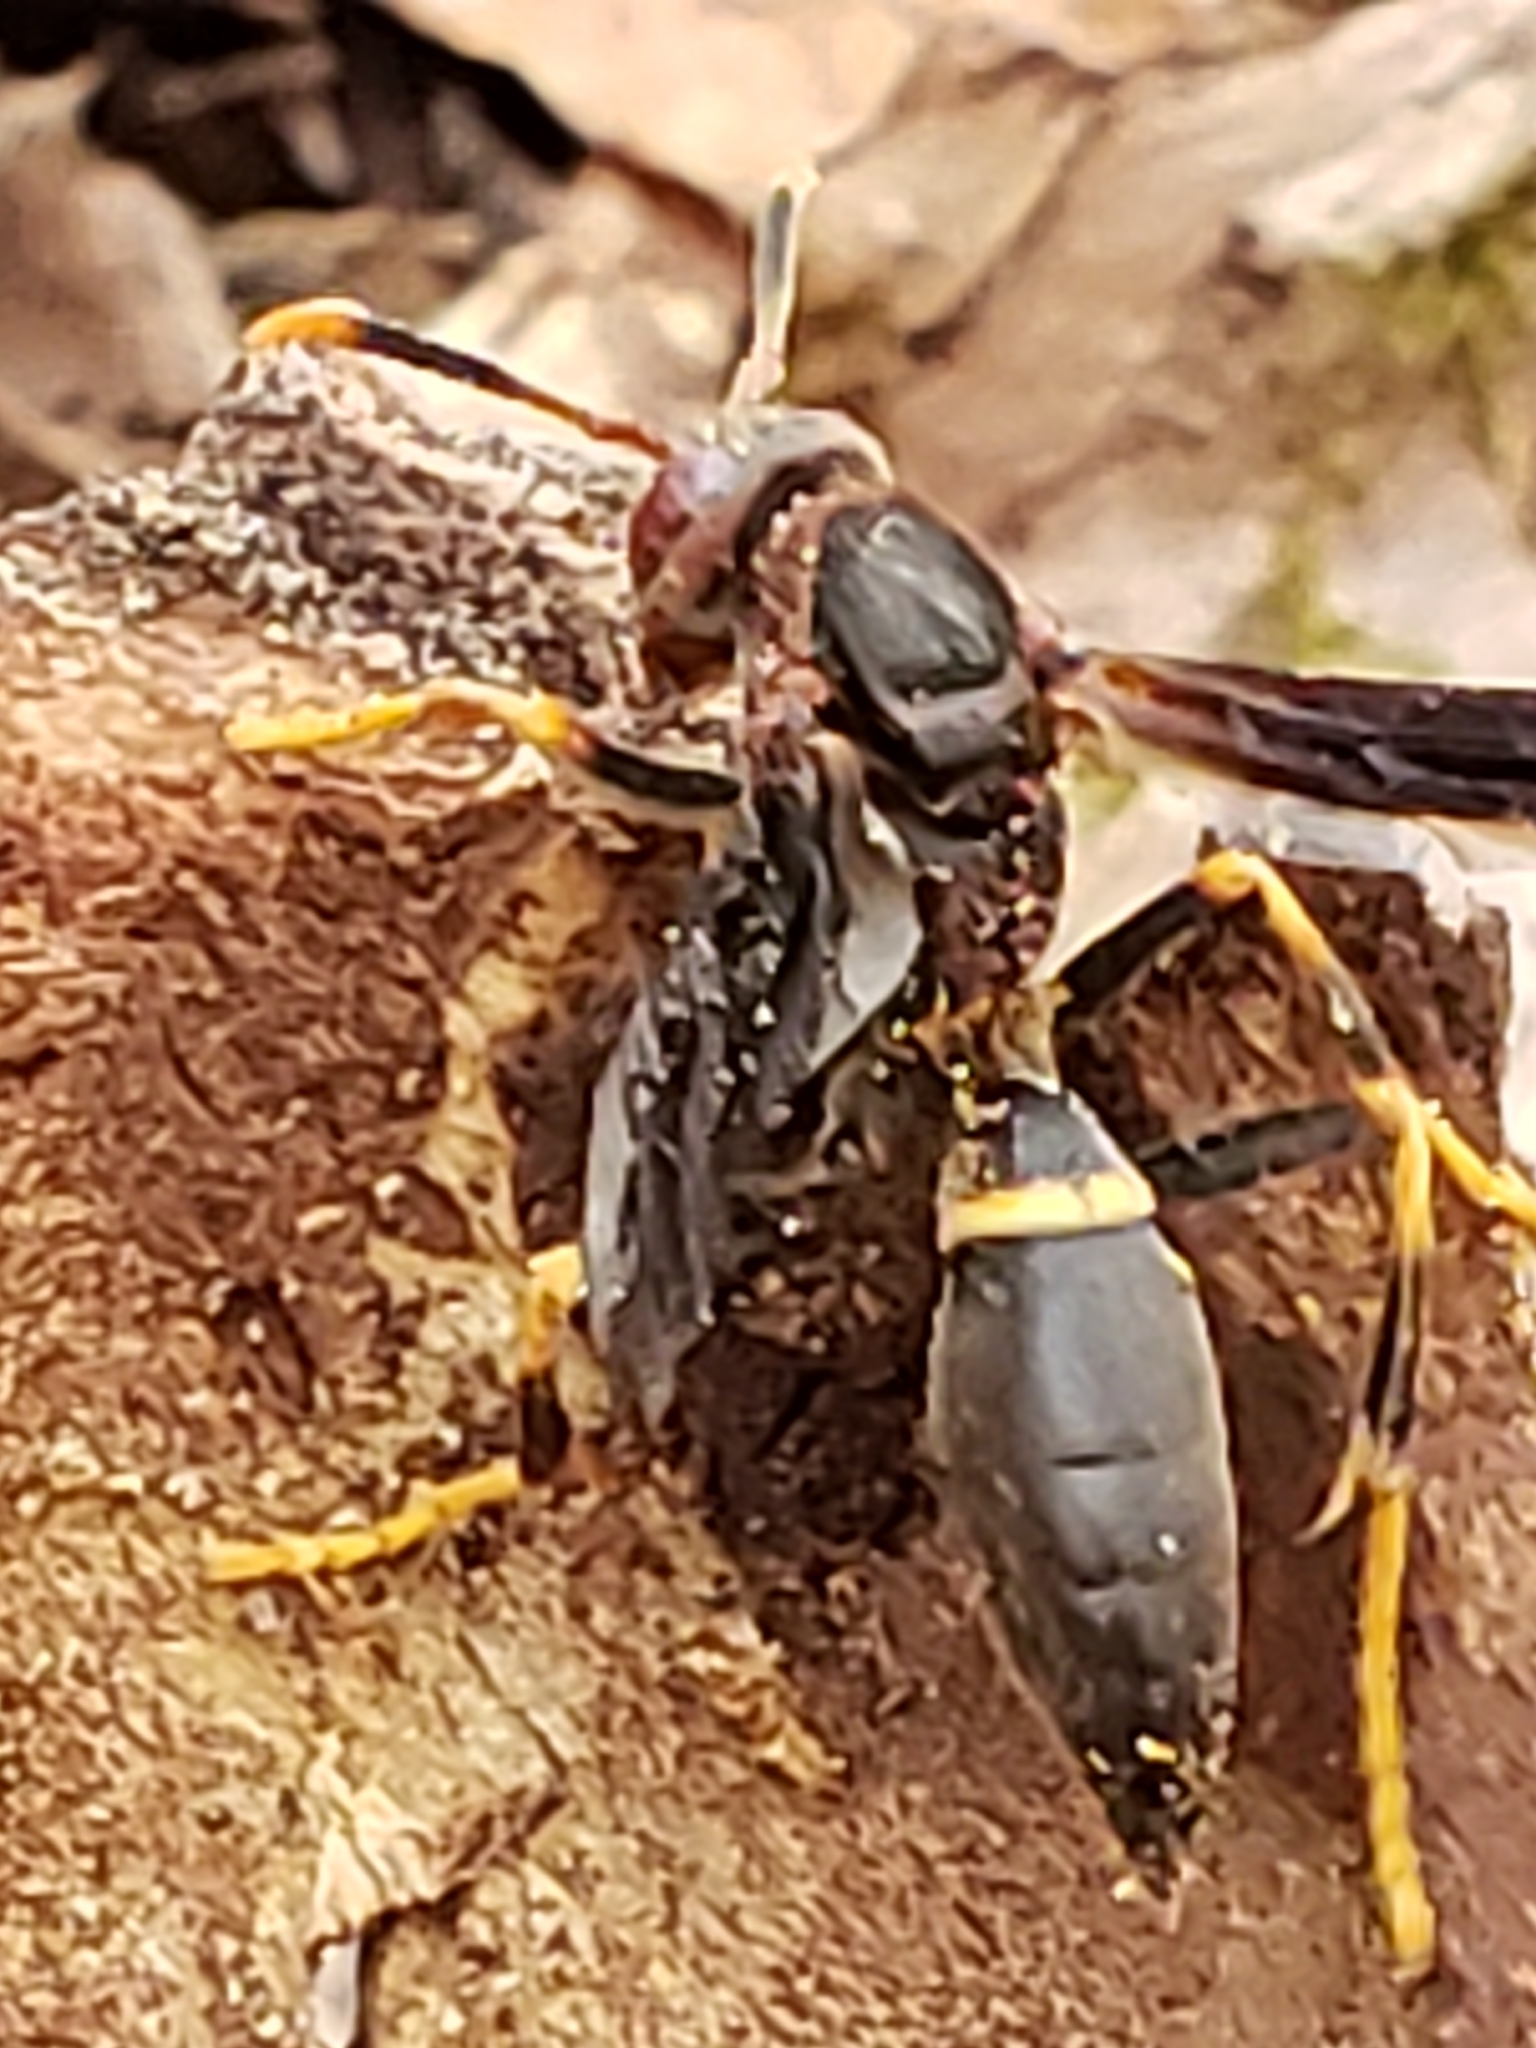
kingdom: Animalia
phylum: Arthropoda
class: Insecta
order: Hymenoptera
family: Eumenidae
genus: Polistes
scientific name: Polistes annularis
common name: Ringed paper wasp
